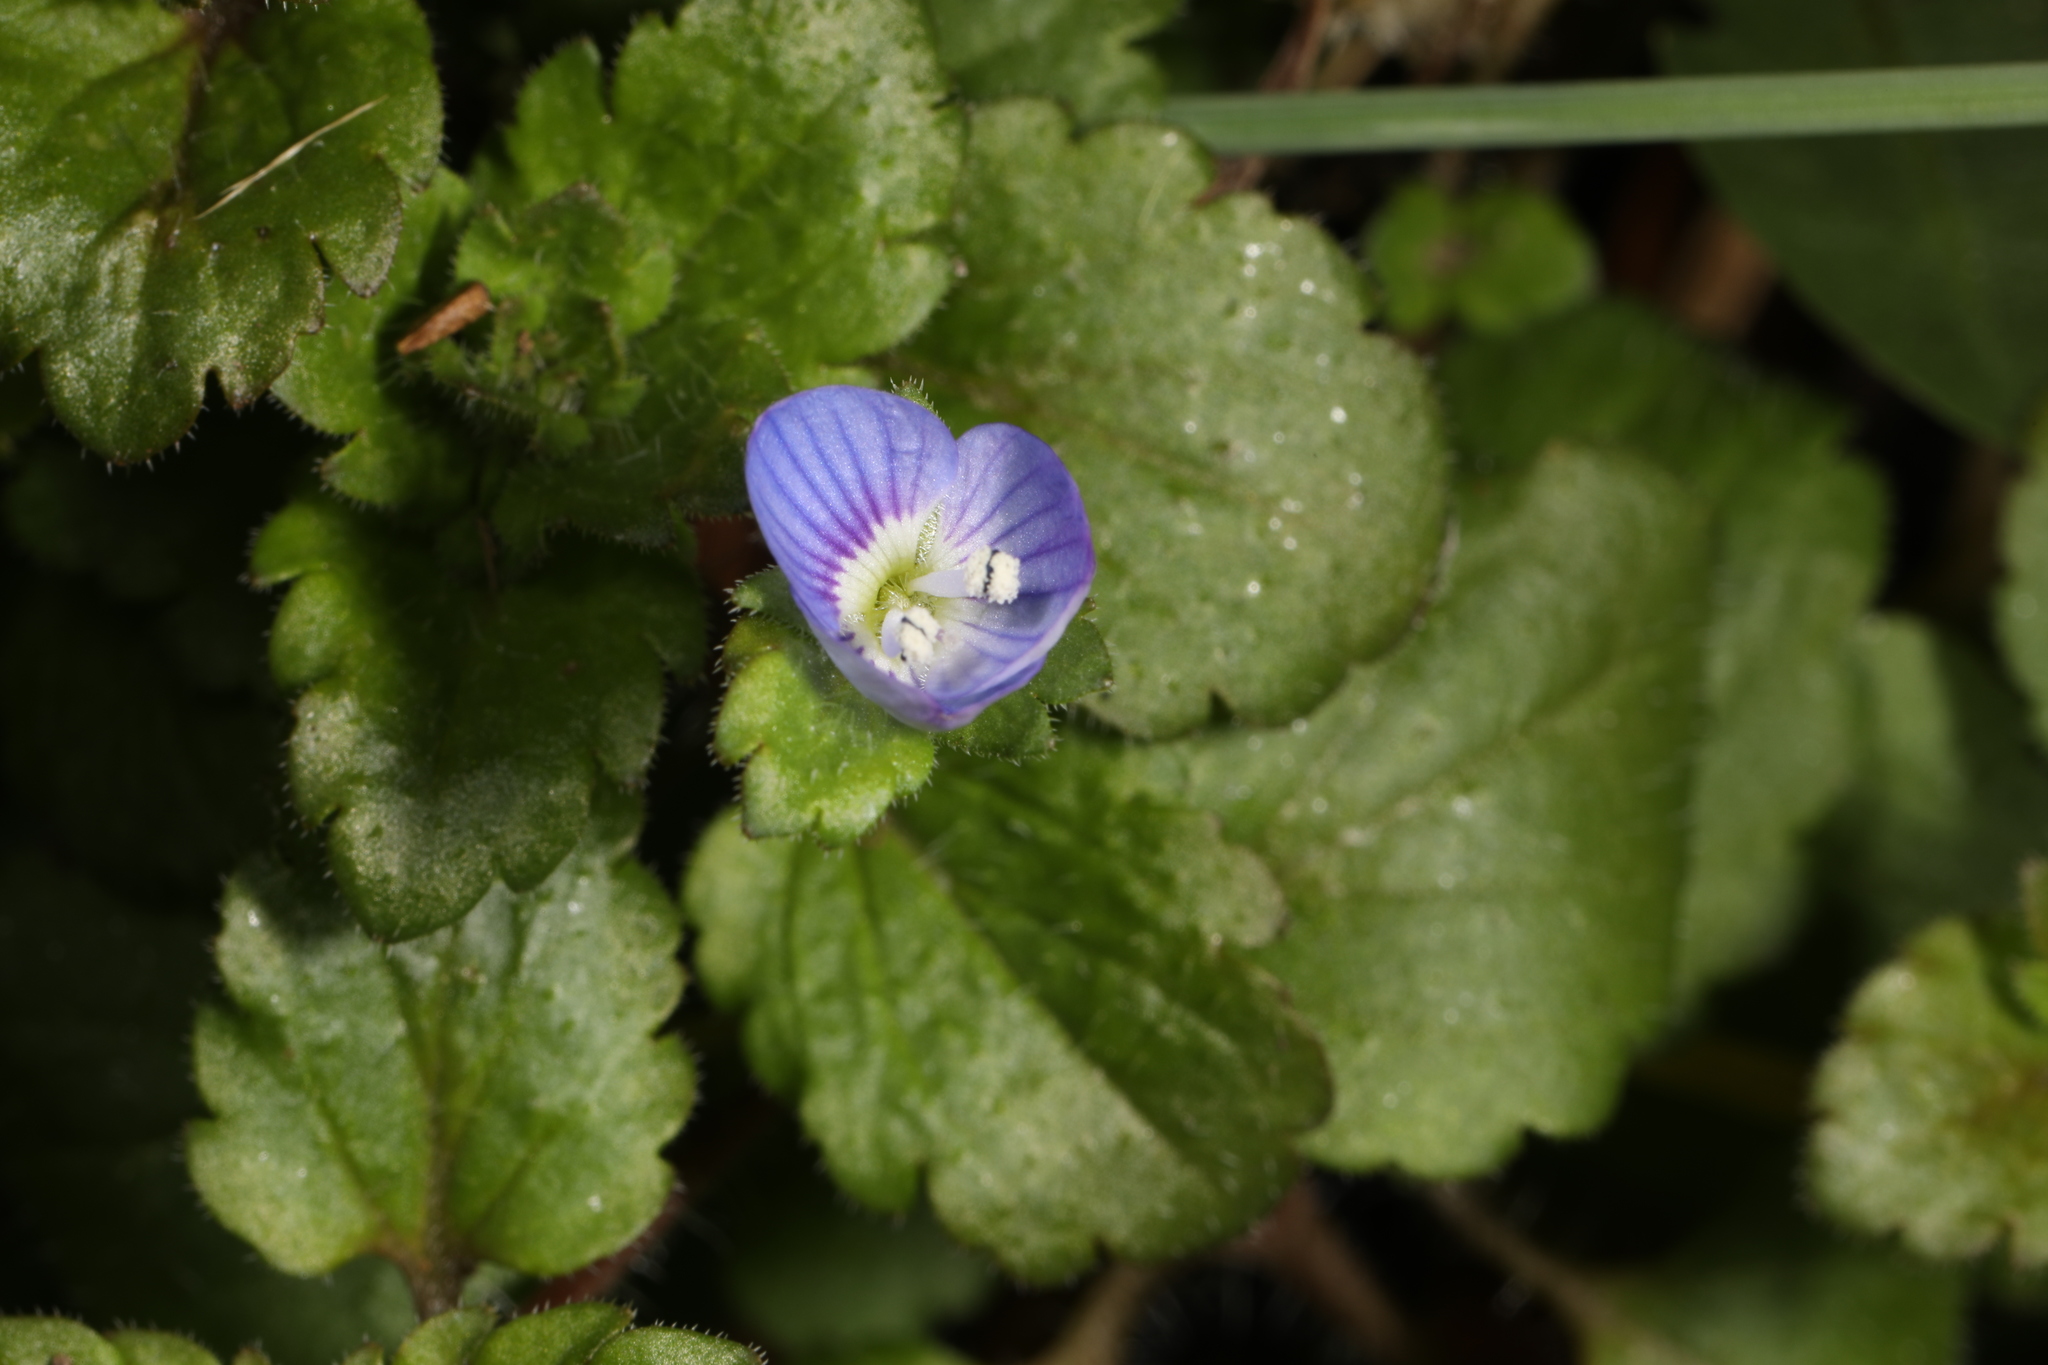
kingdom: Plantae
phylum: Tracheophyta
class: Magnoliopsida
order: Lamiales
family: Plantaginaceae
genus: Veronica
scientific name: Veronica persica
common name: Common field-speedwell
